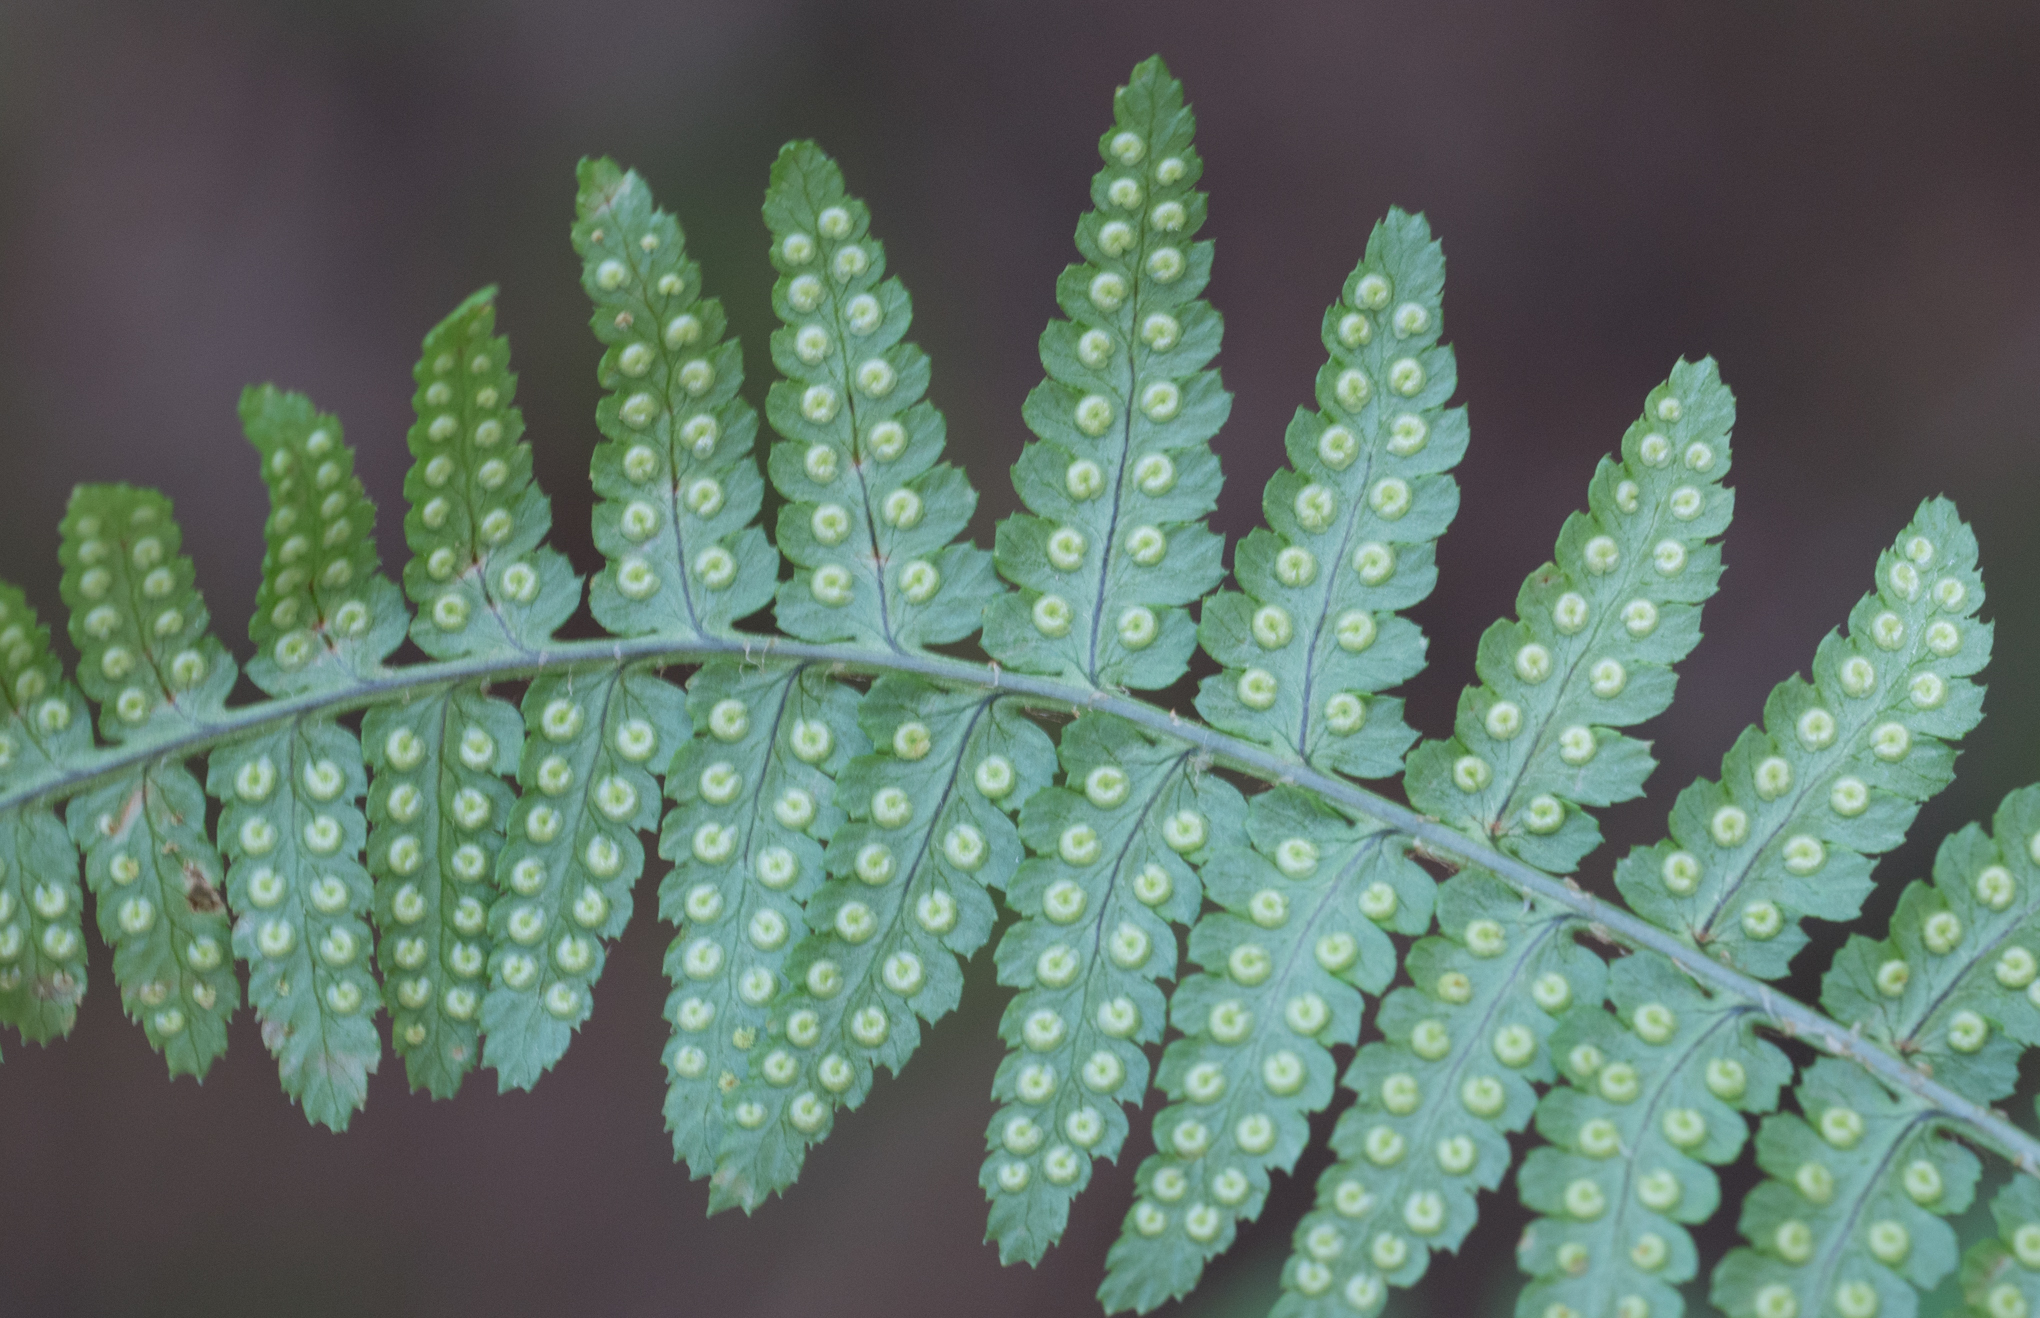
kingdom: Plantae
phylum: Tracheophyta
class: Polypodiopsida
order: Polypodiales
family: Dryopteridaceae
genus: Dryopteris
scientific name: Dryopteris arguta
